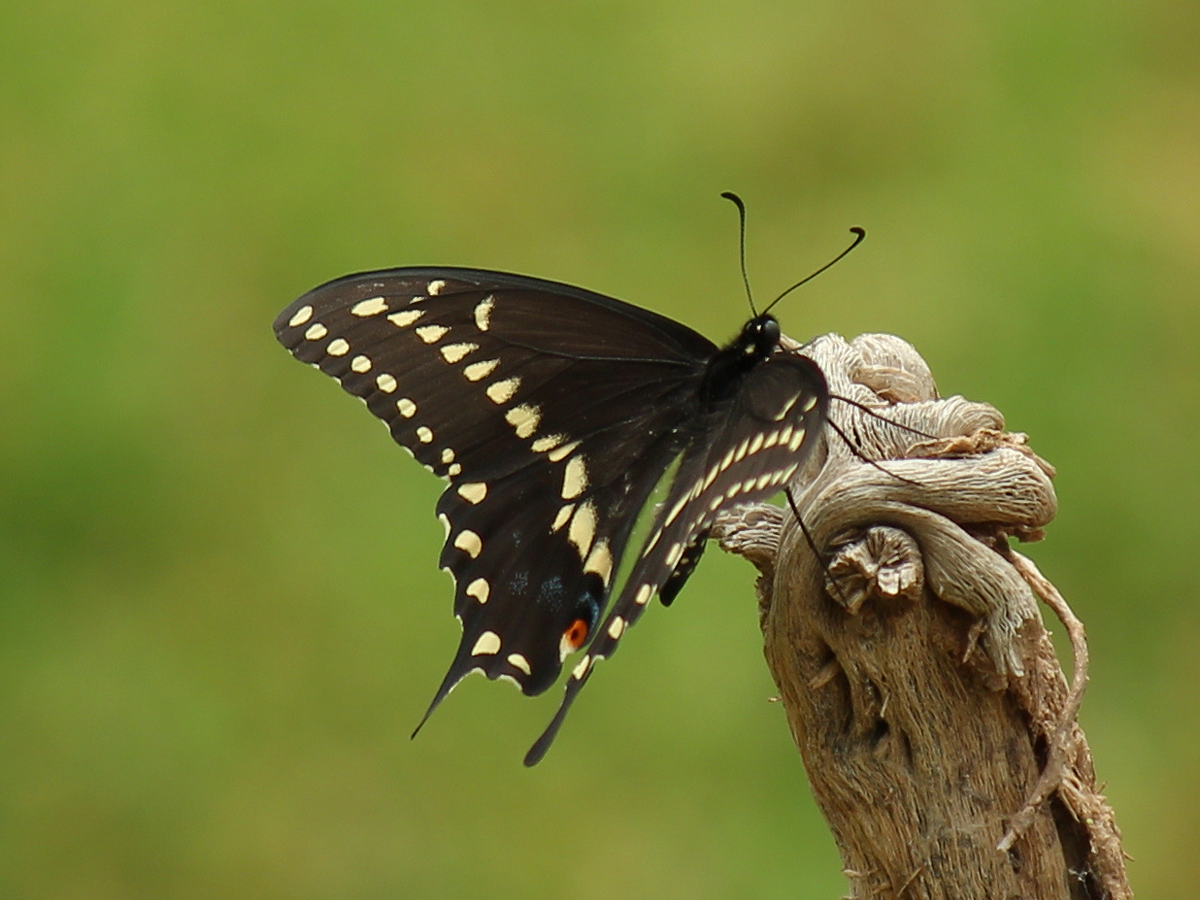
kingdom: Animalia
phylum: Arthropoda
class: Insecta
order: Lepidoptera
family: Papilionidae
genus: Papilio
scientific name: Papilio polyxenes
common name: Black swallowtail
